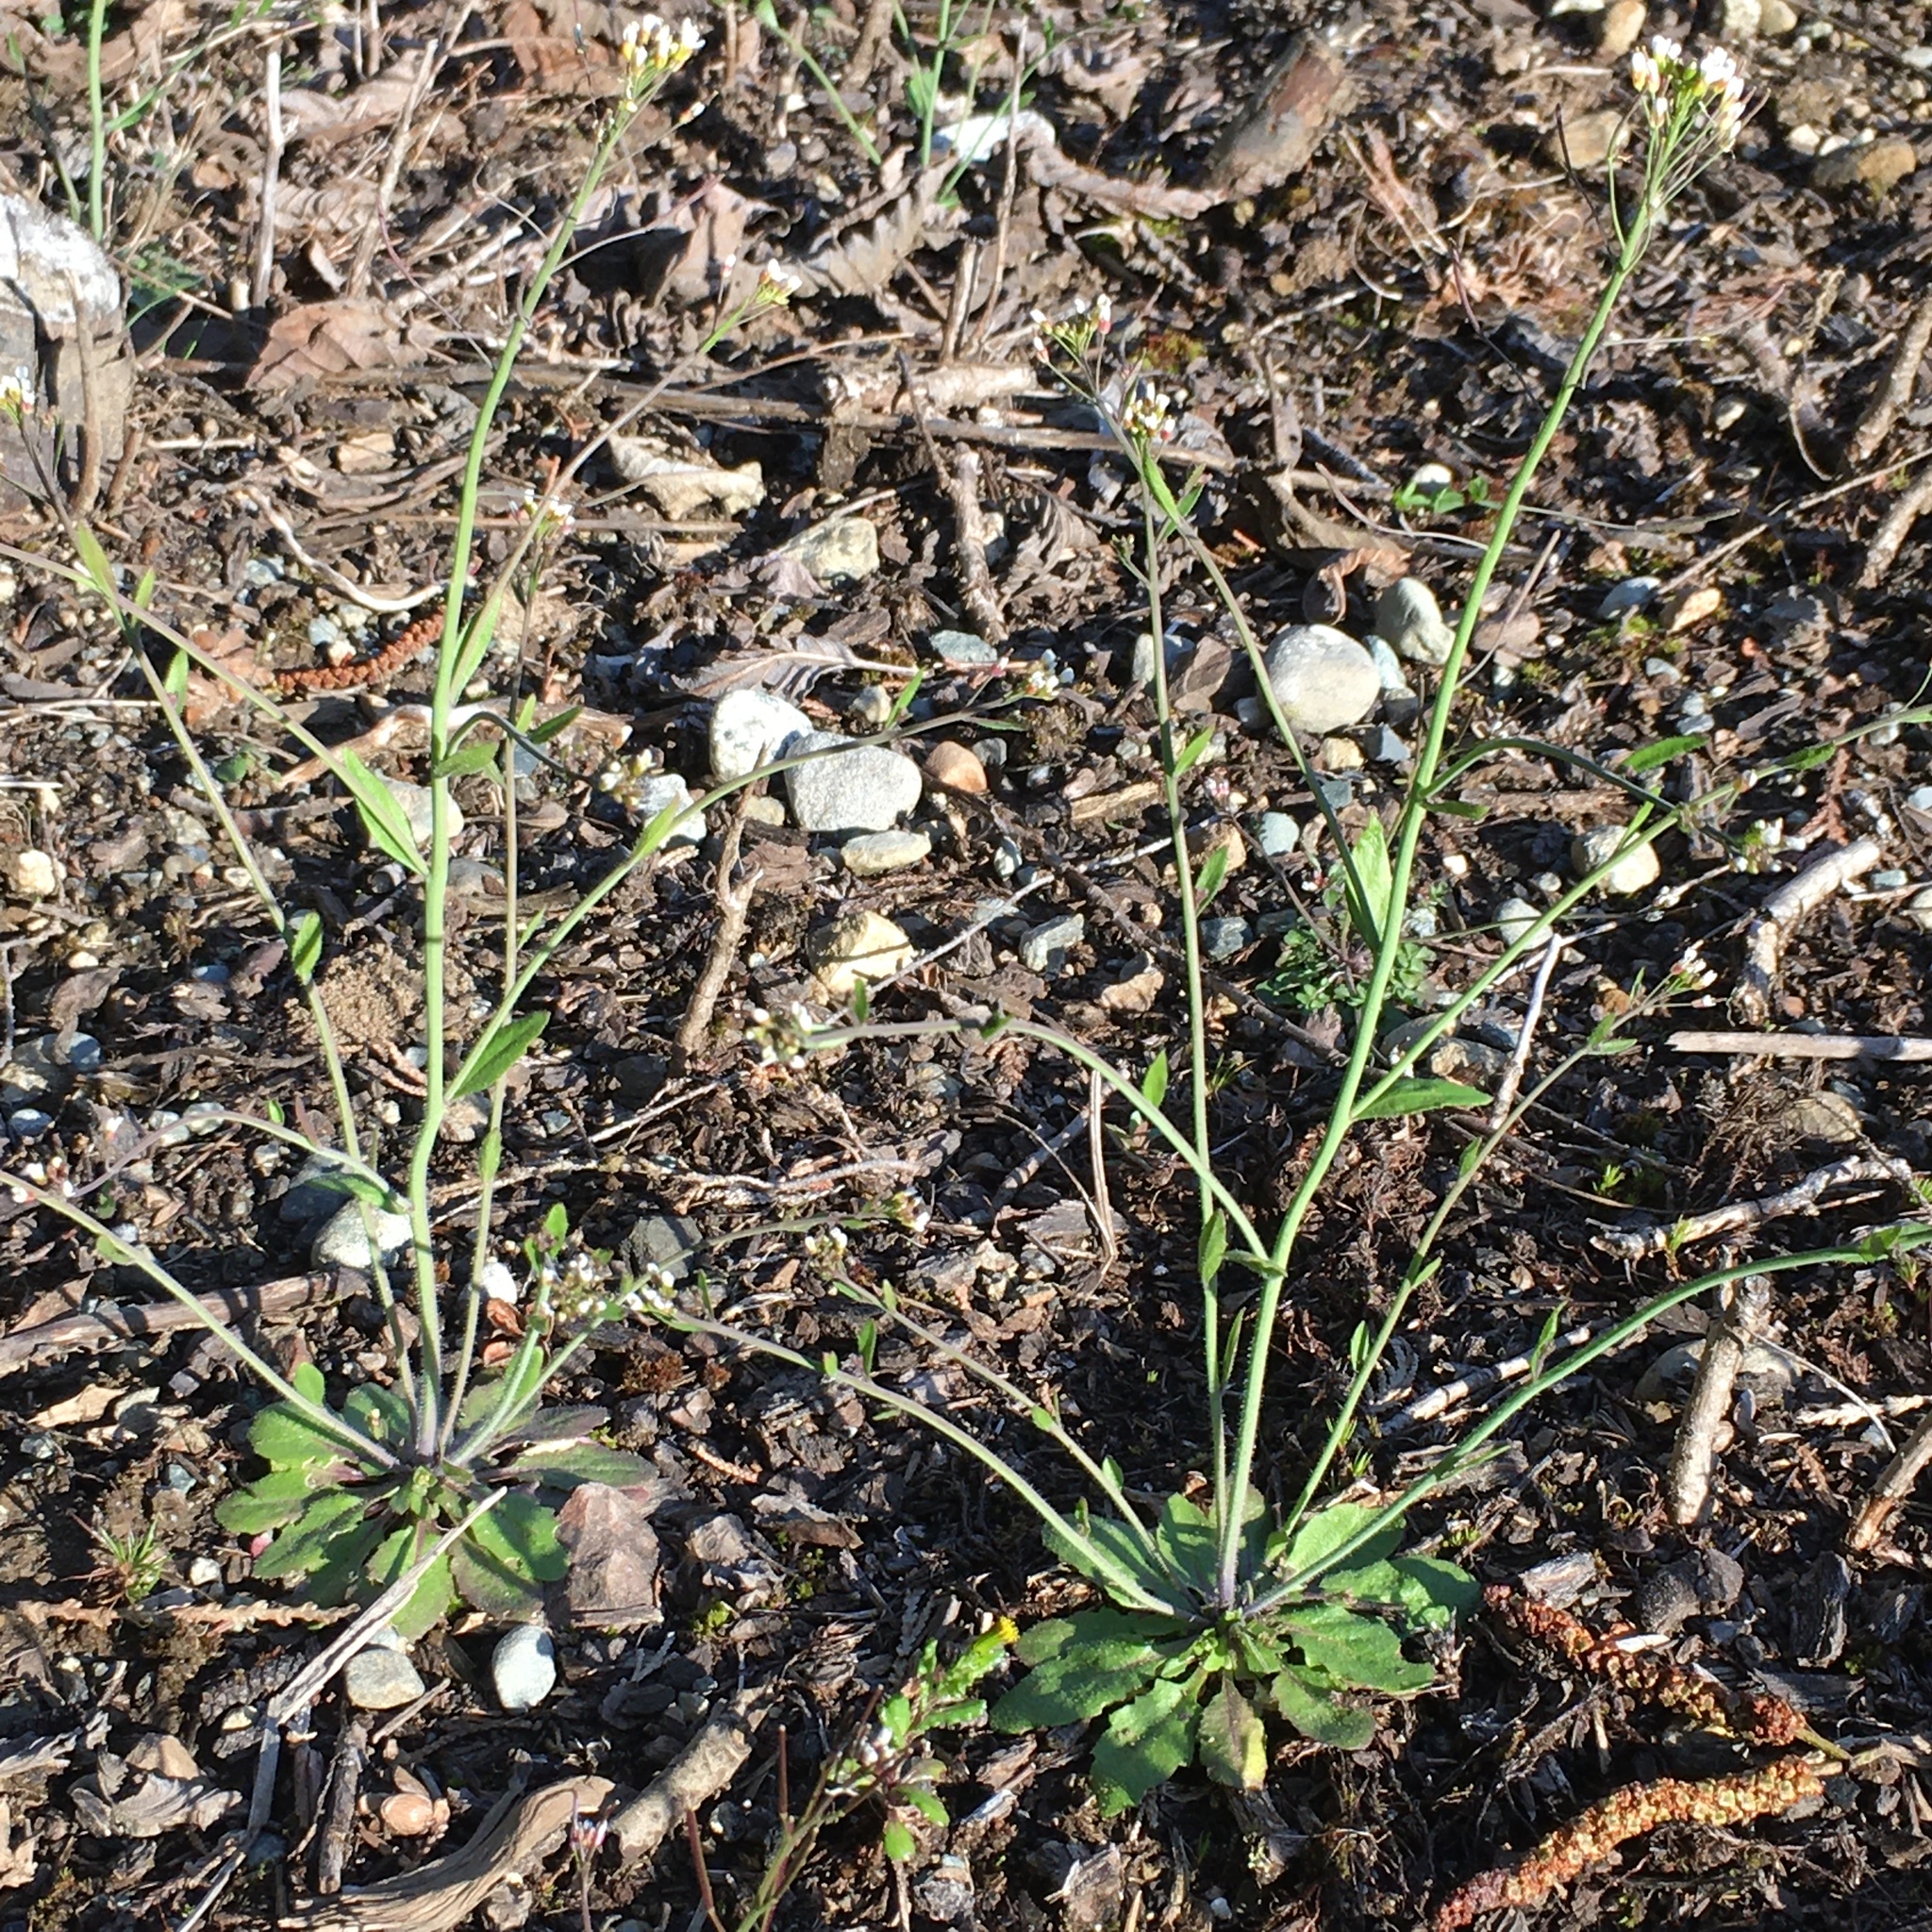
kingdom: Plantae
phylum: Tracheophyta
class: Magnoliopsida
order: Brassicales
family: Brassicaceae
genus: Arabidopsis
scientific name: Arabidopsis thaliana
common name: Thale cress
